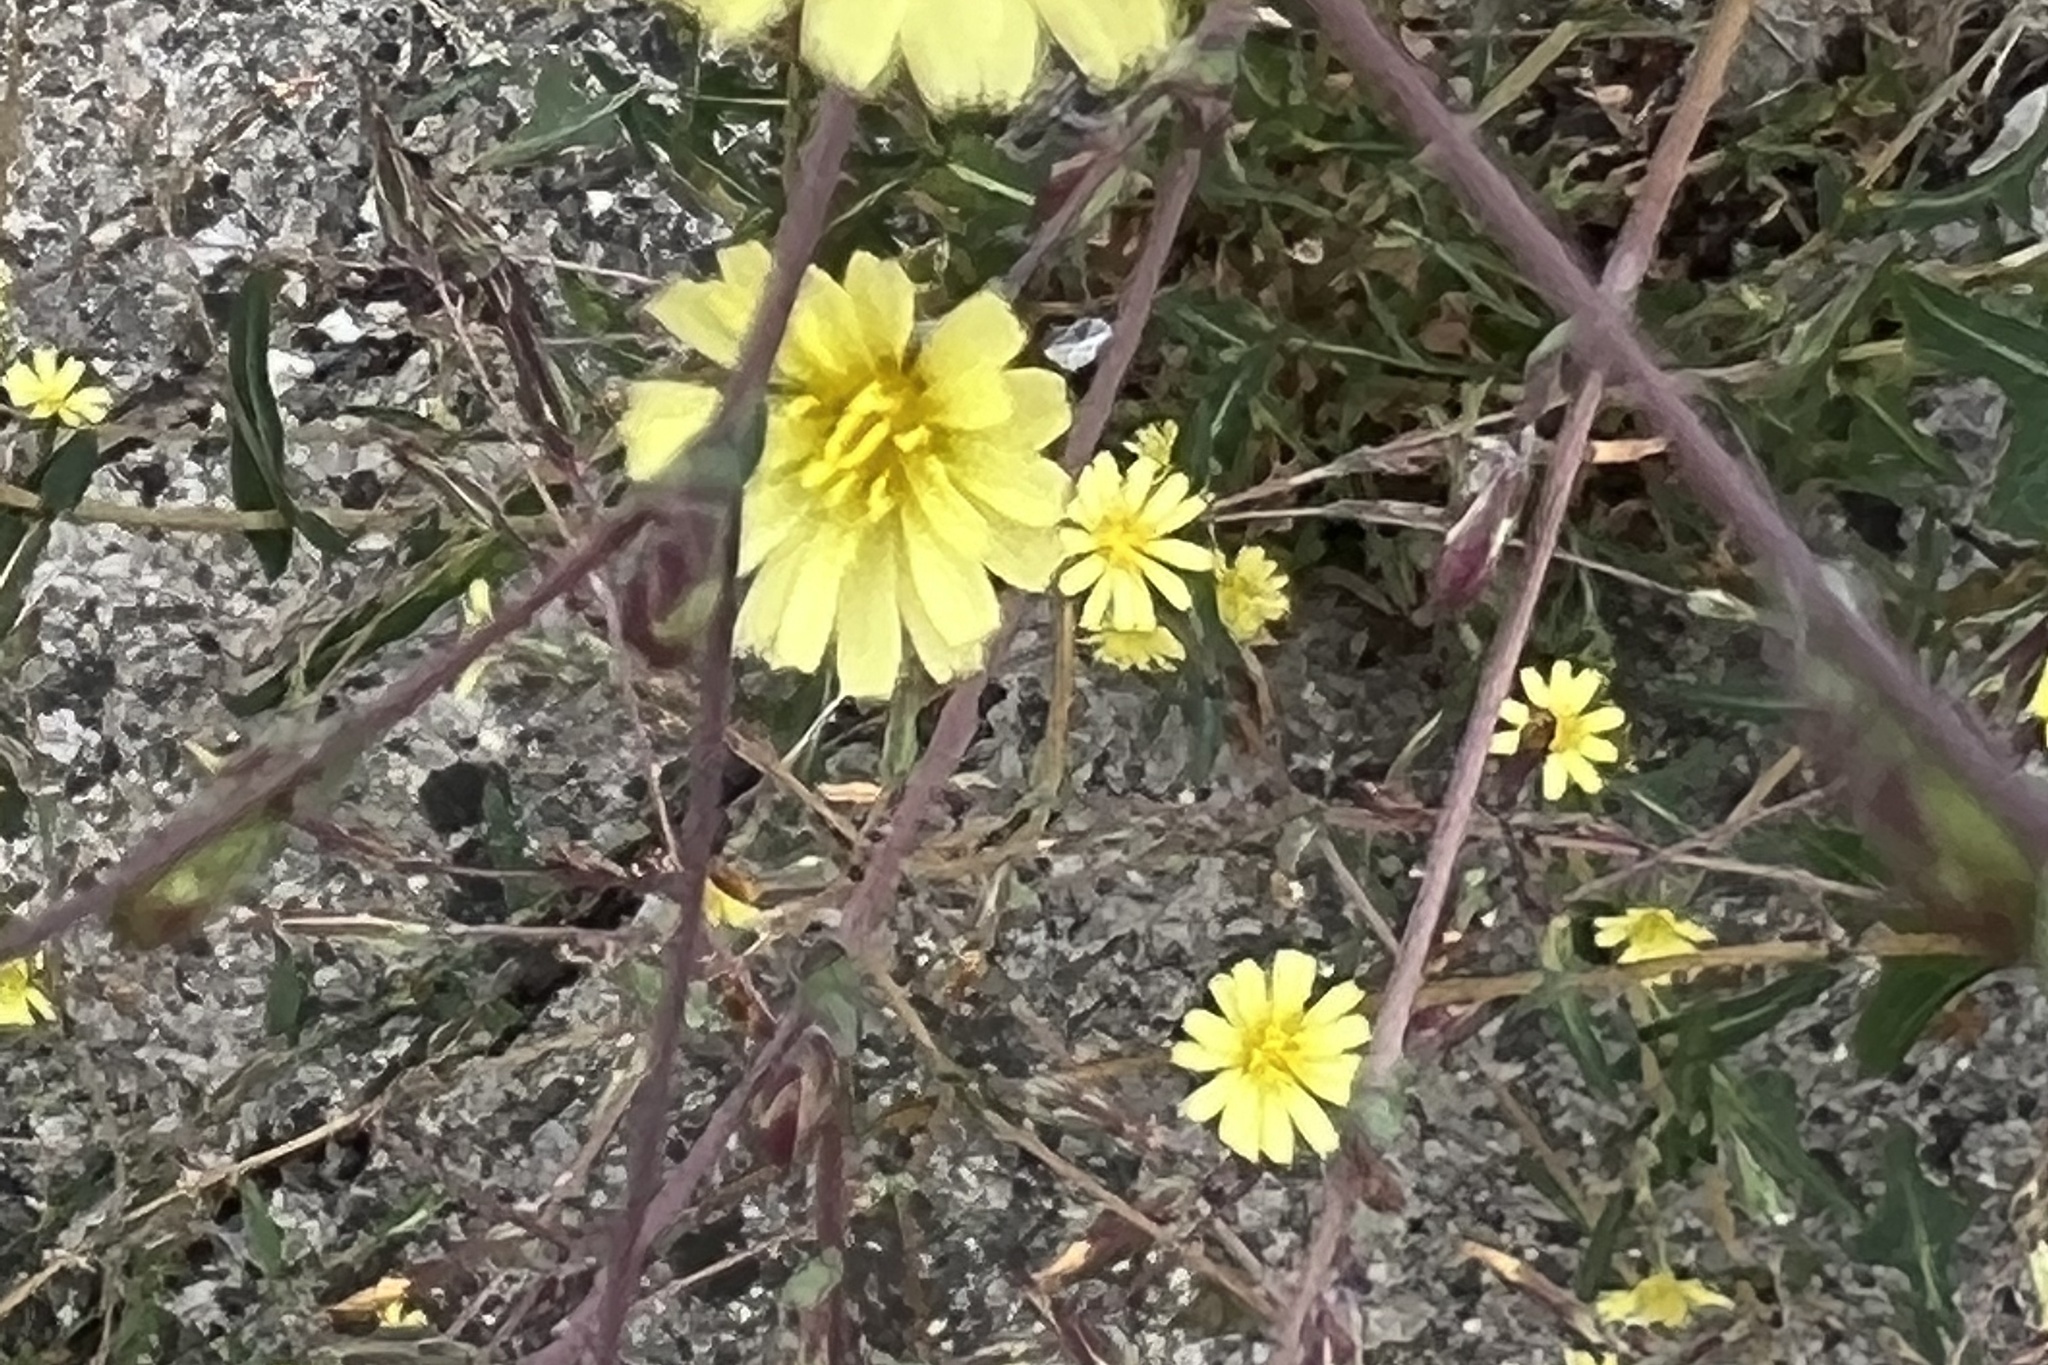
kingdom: Plantae
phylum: Tracheophyta
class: Magnoliopsida
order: Asterales
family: Asteraceae
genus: Lactuca
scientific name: Lactuca serriola
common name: Prickly lettuce
